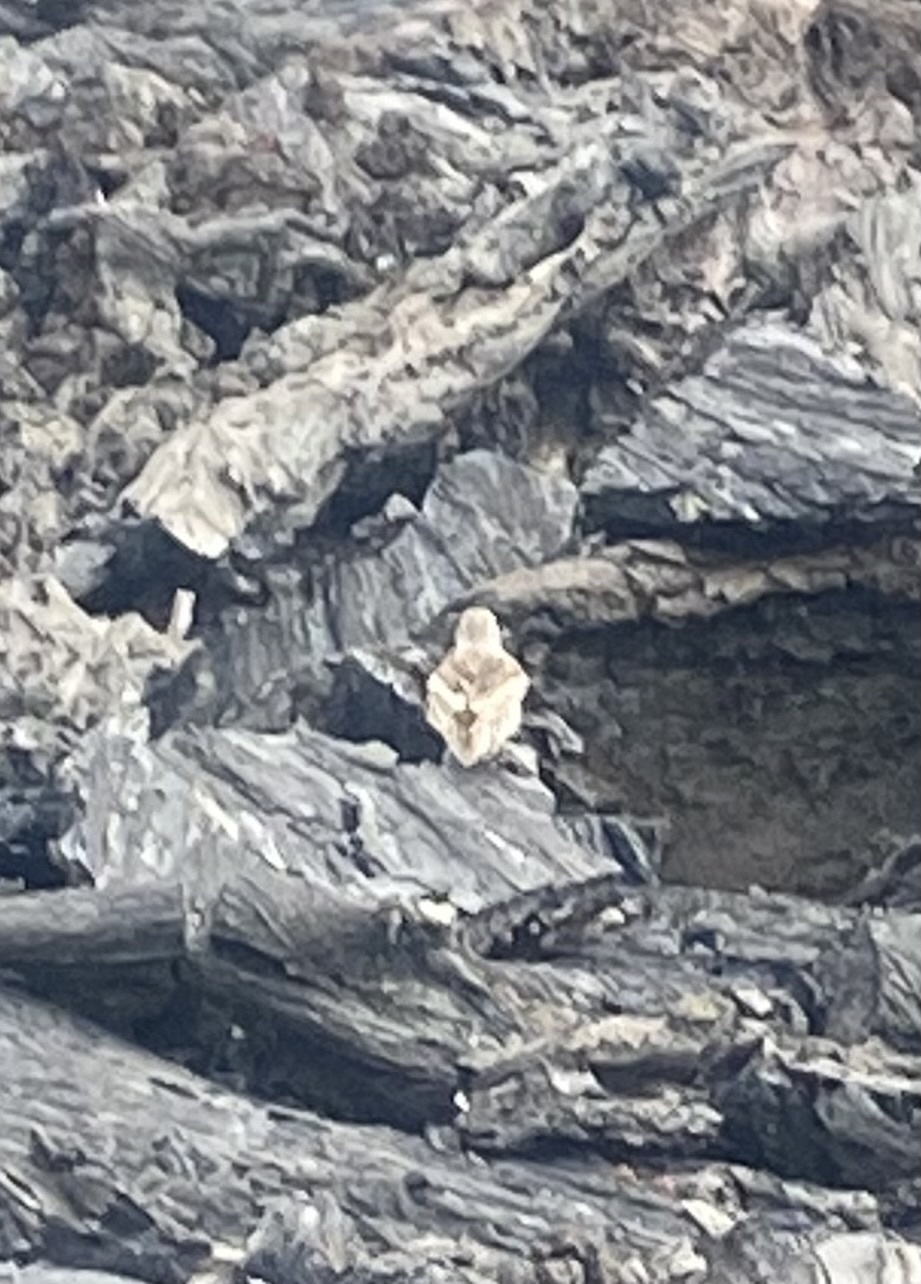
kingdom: Animalia
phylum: Chordata
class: Aves
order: Passeriformes
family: Calcariidae
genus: Plectrophenax
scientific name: Plectrophenax nivalis
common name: Snow bunting
